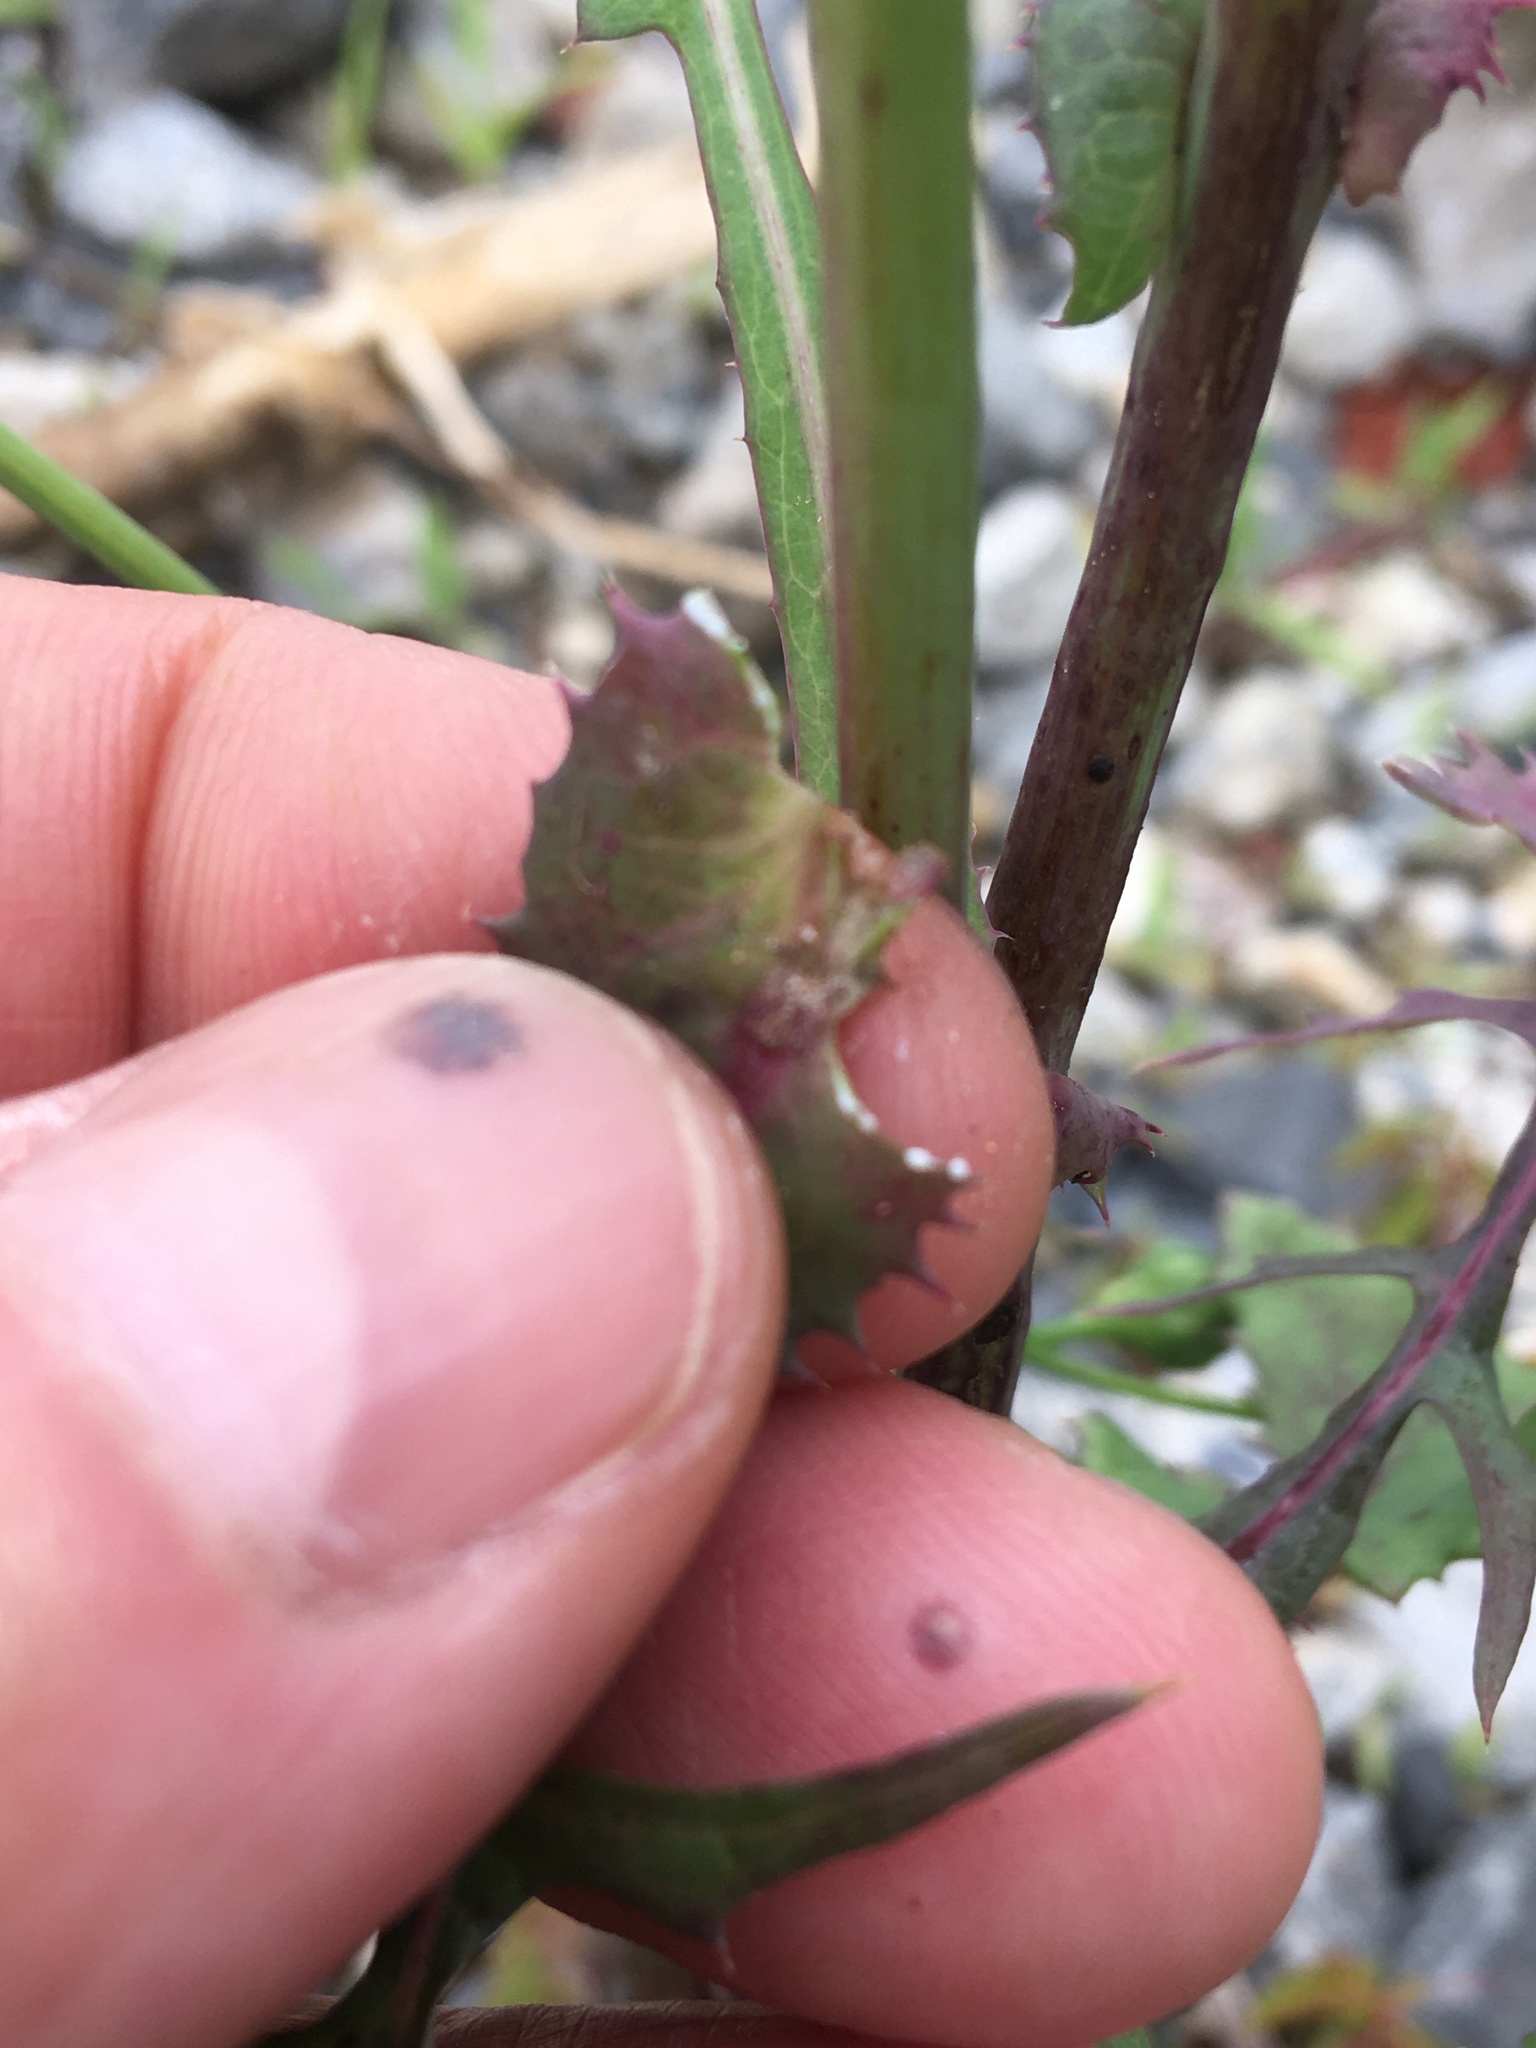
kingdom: Plantae
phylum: Tracheophyta
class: Magnoliopsida
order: Asterales
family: Asteraceae
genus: Sonchus
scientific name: Sonchus arvensis
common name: Perennial sow-thistle
